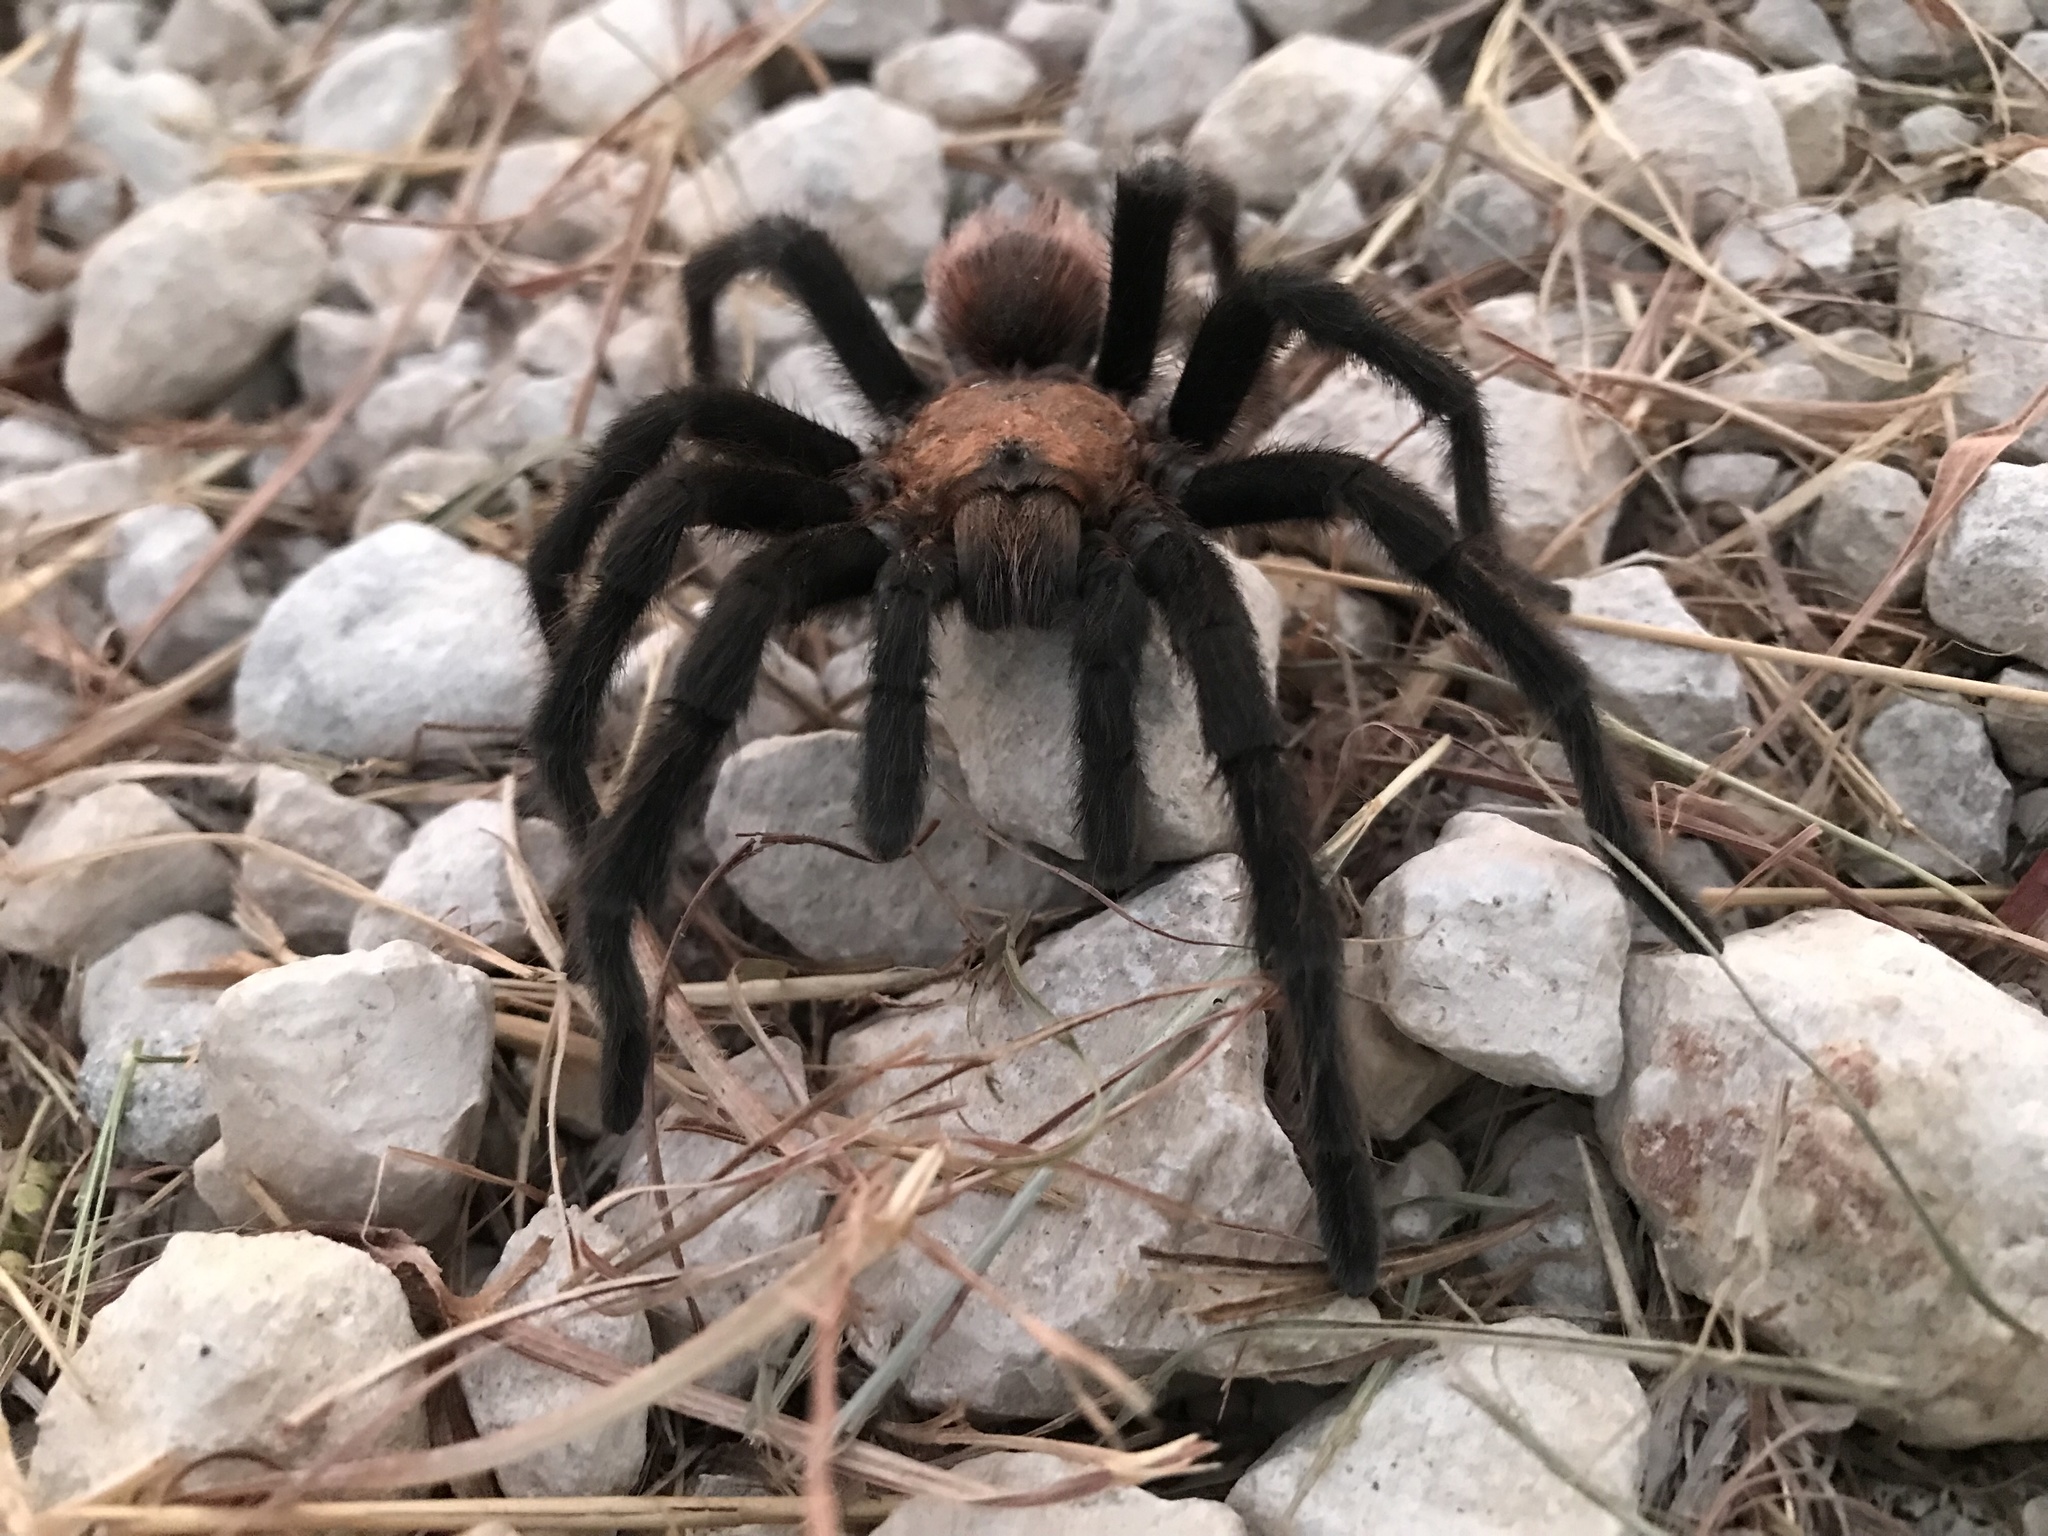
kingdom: Animalia
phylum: Arthropoda
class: Arachnida
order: Araneae
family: Theraphosidae
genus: Aphonopelma
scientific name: Aphonopelma hentzi
